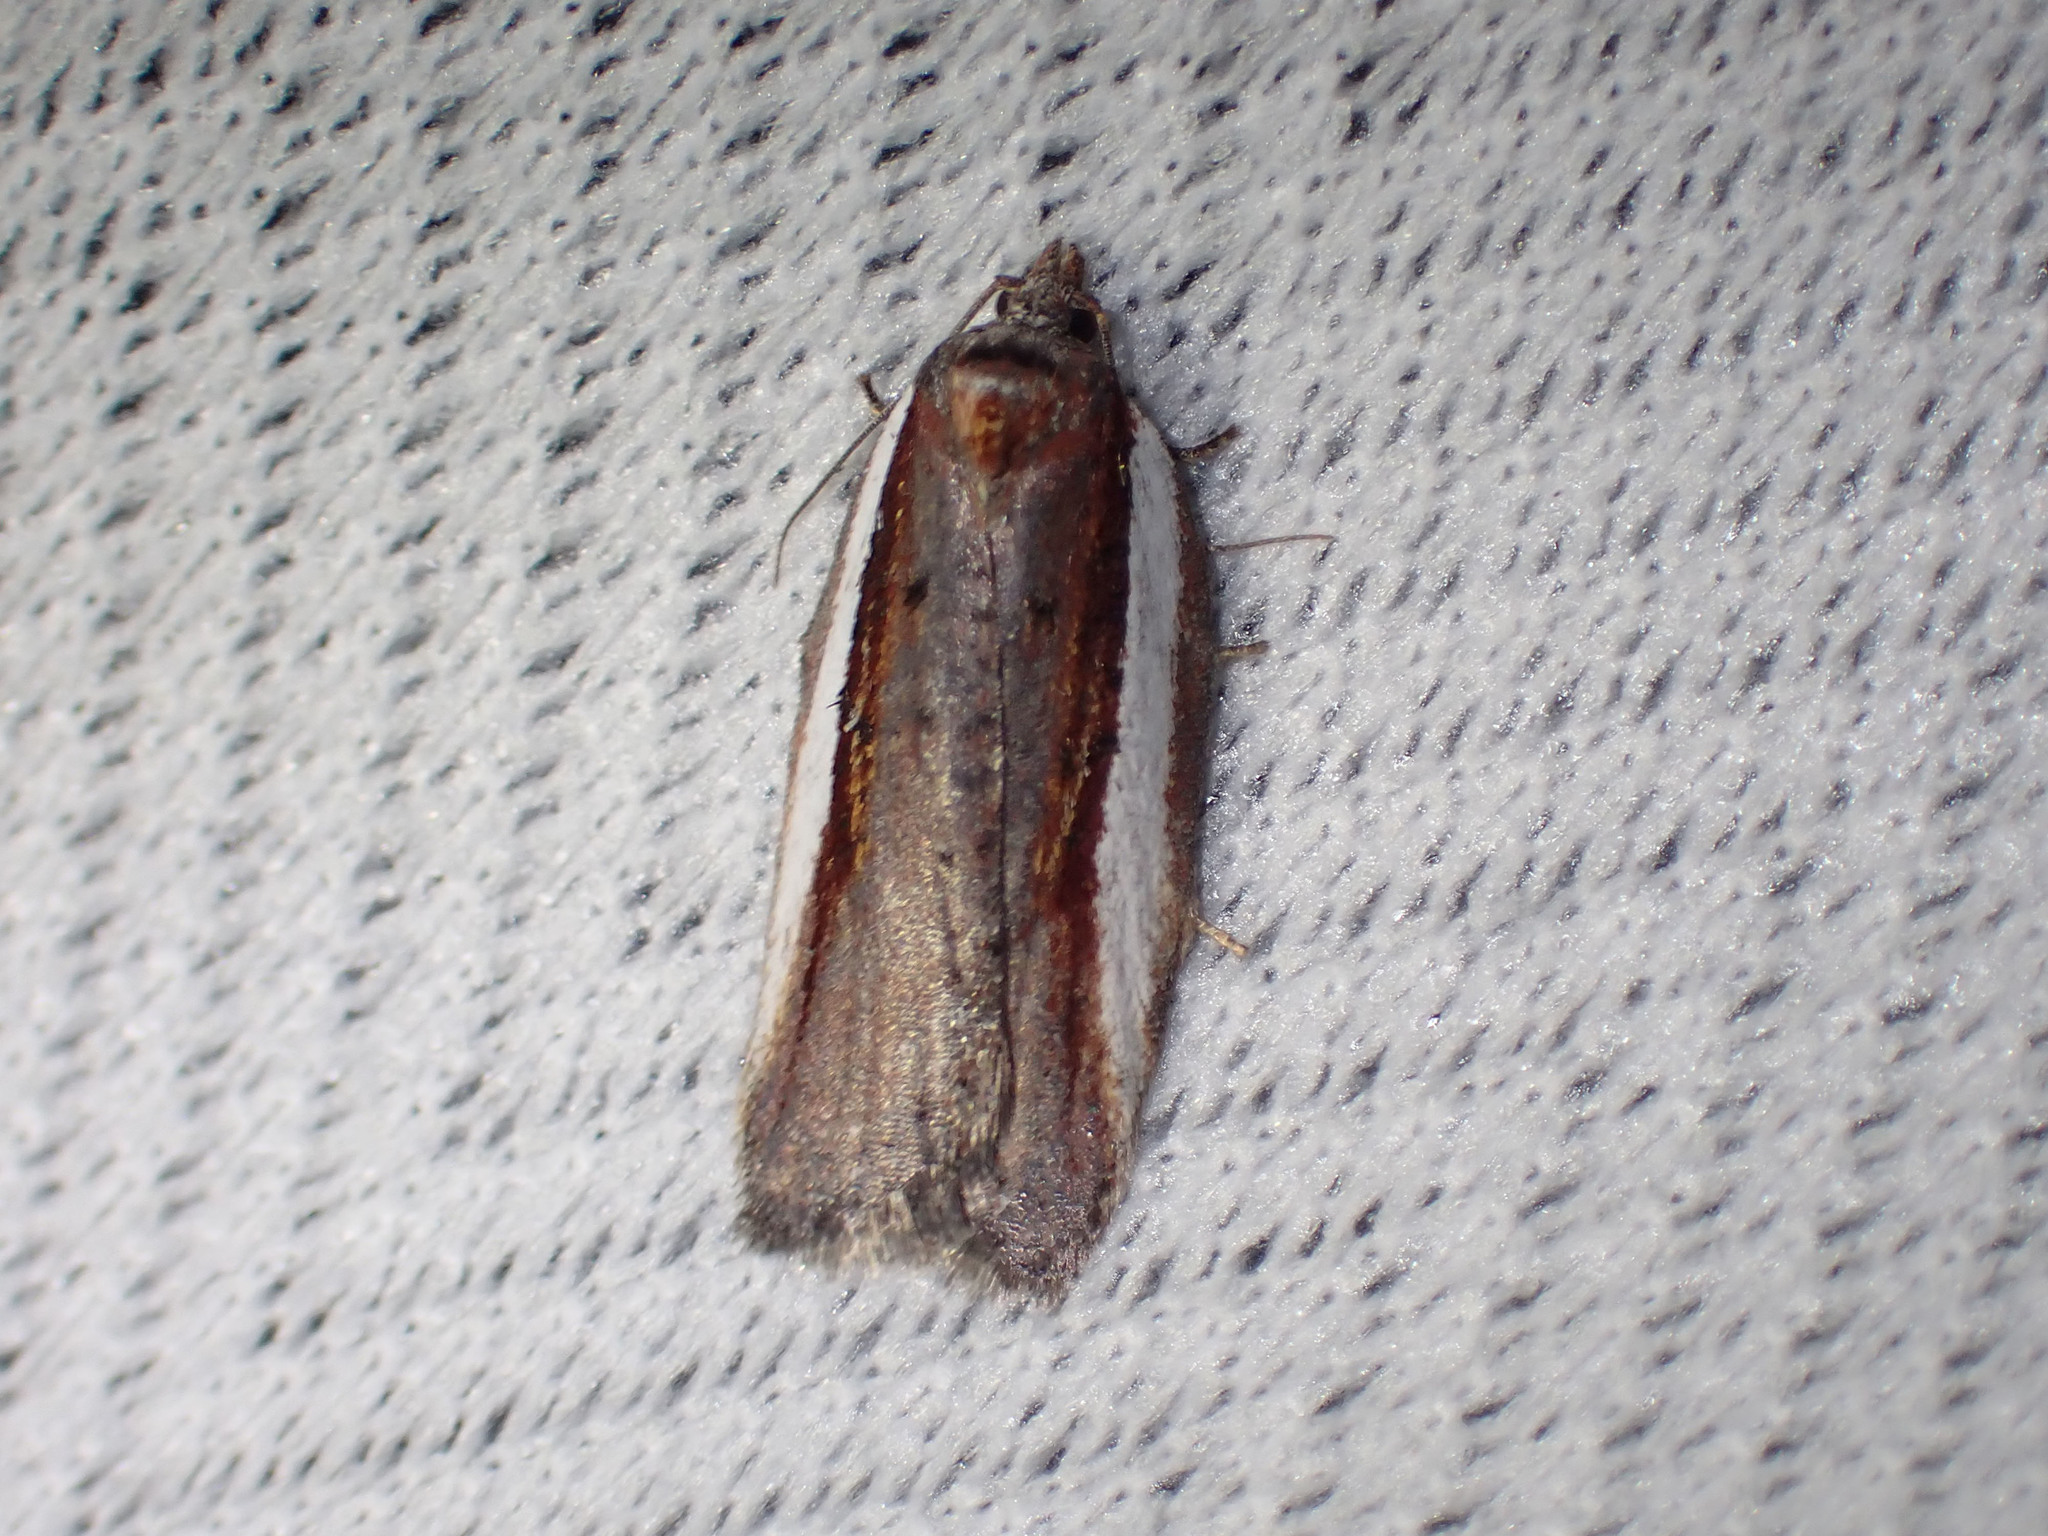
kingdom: Animalia
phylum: Arthropoda
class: Insecta
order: Lepidoptera
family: Tortricidae
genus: Acleris
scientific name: Acleris celiana
